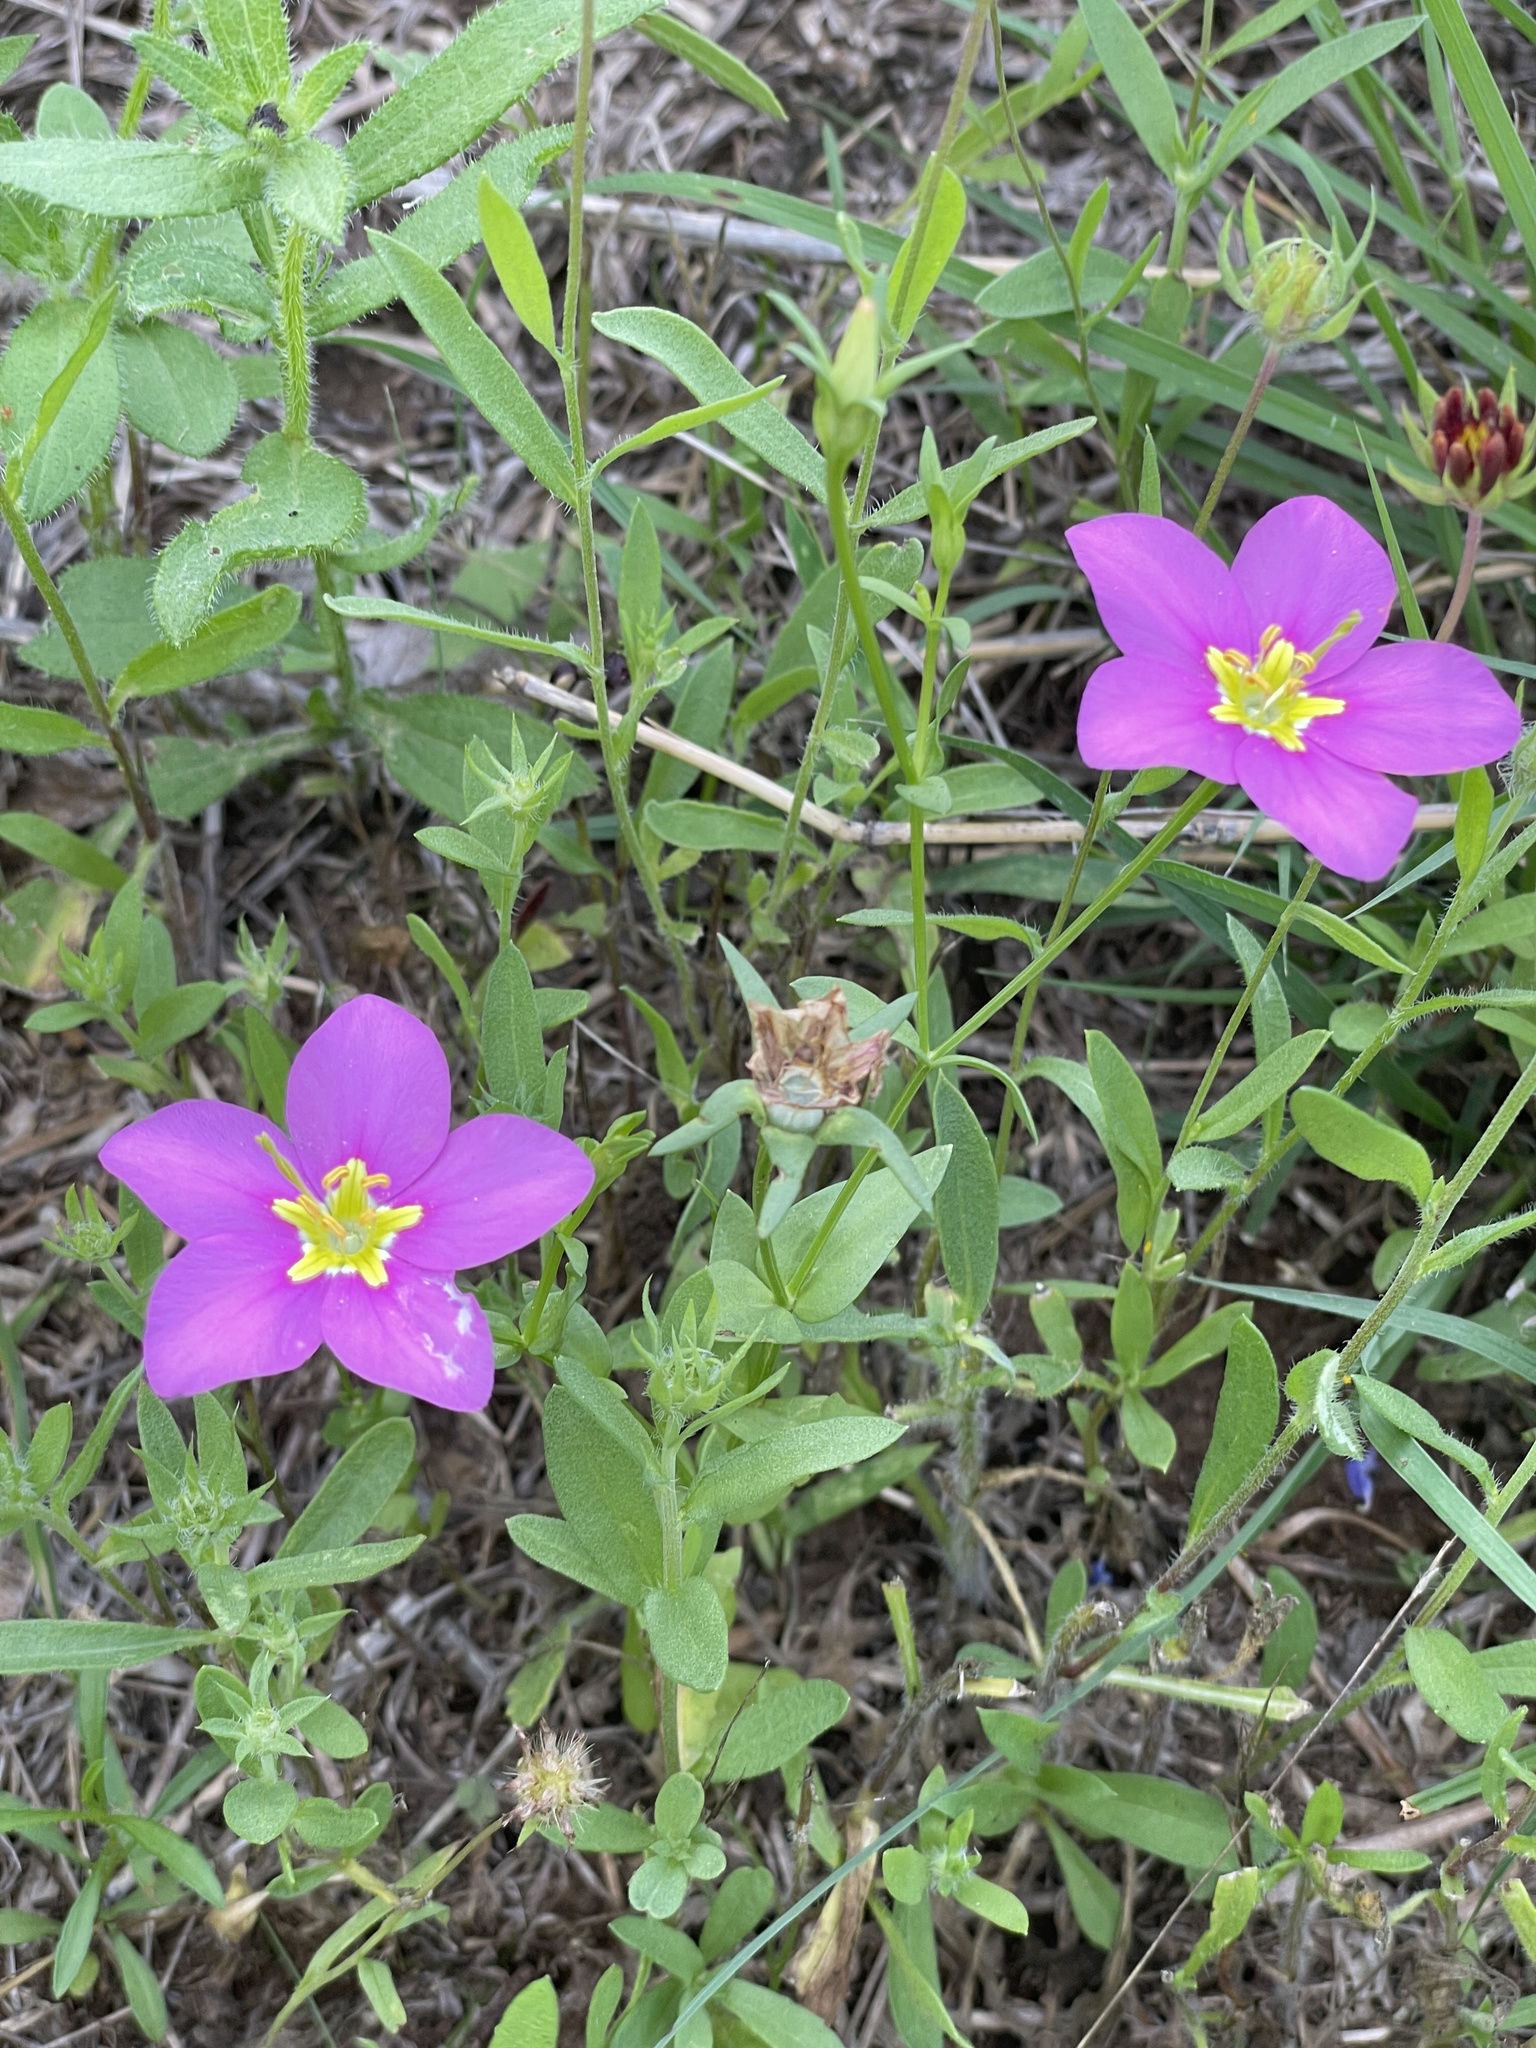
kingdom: Plantae
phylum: Tracheophyta
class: Magnoliopsida
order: Gentianales
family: Gentianaceae
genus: Sabatia
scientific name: Sabatia campestris
